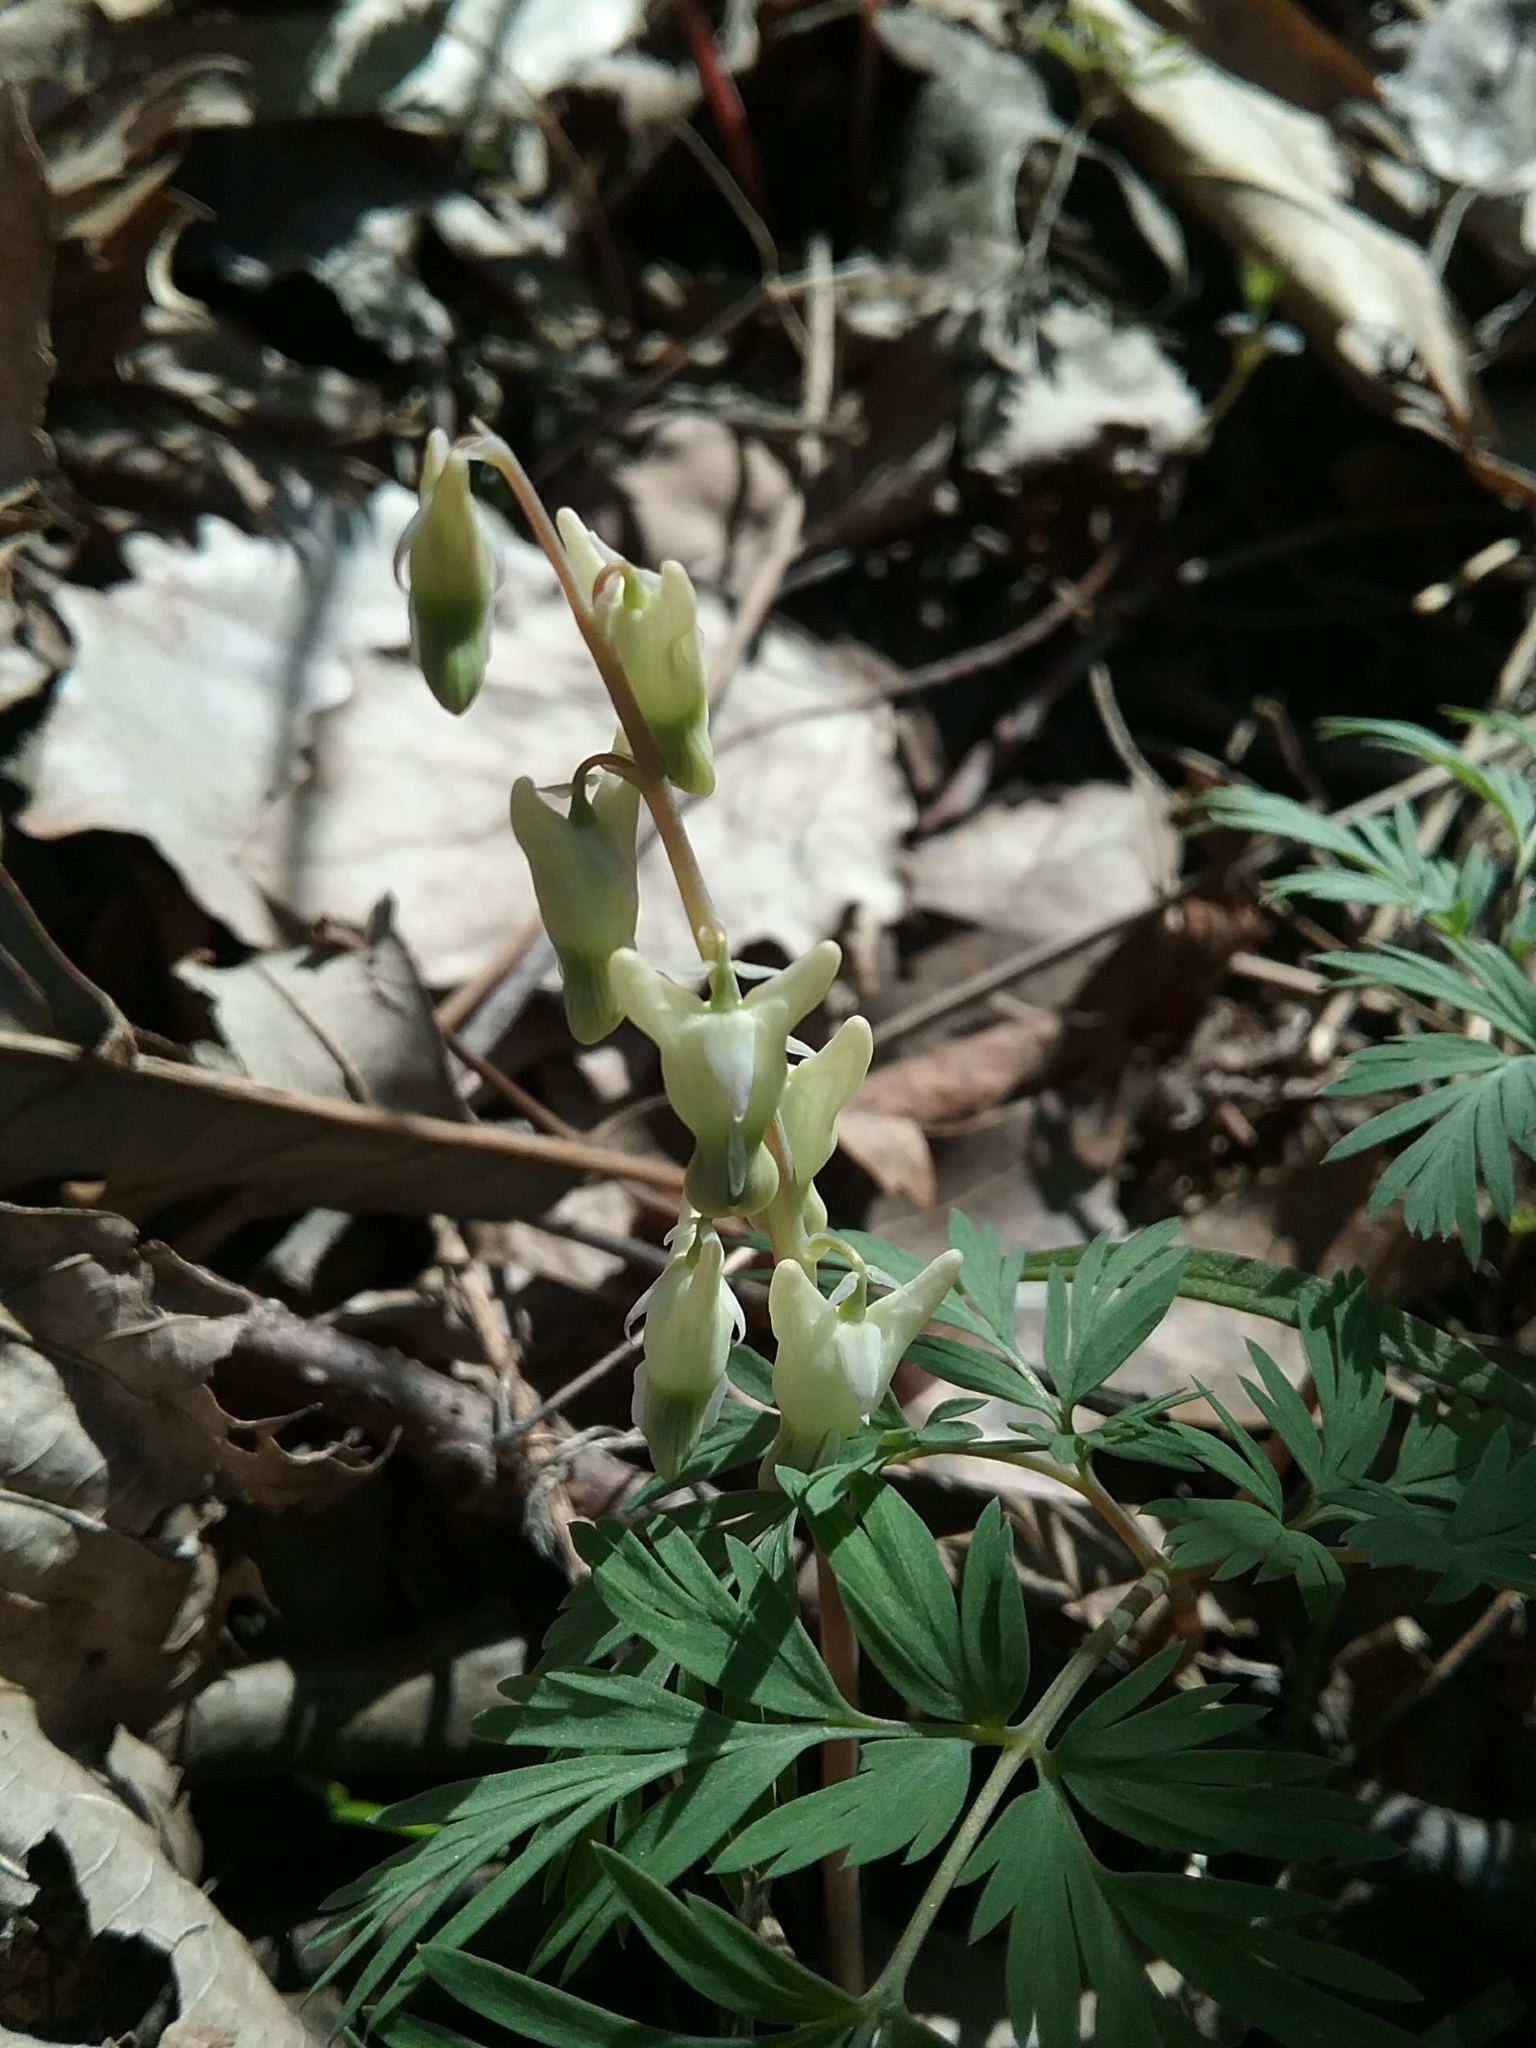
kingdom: Plantae
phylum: Tracheophyta
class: Magnoliopsida
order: Ranunculales
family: Papaveraceae
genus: Dicentra
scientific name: Dicentra cucullaria
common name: Dutchman's breeches
